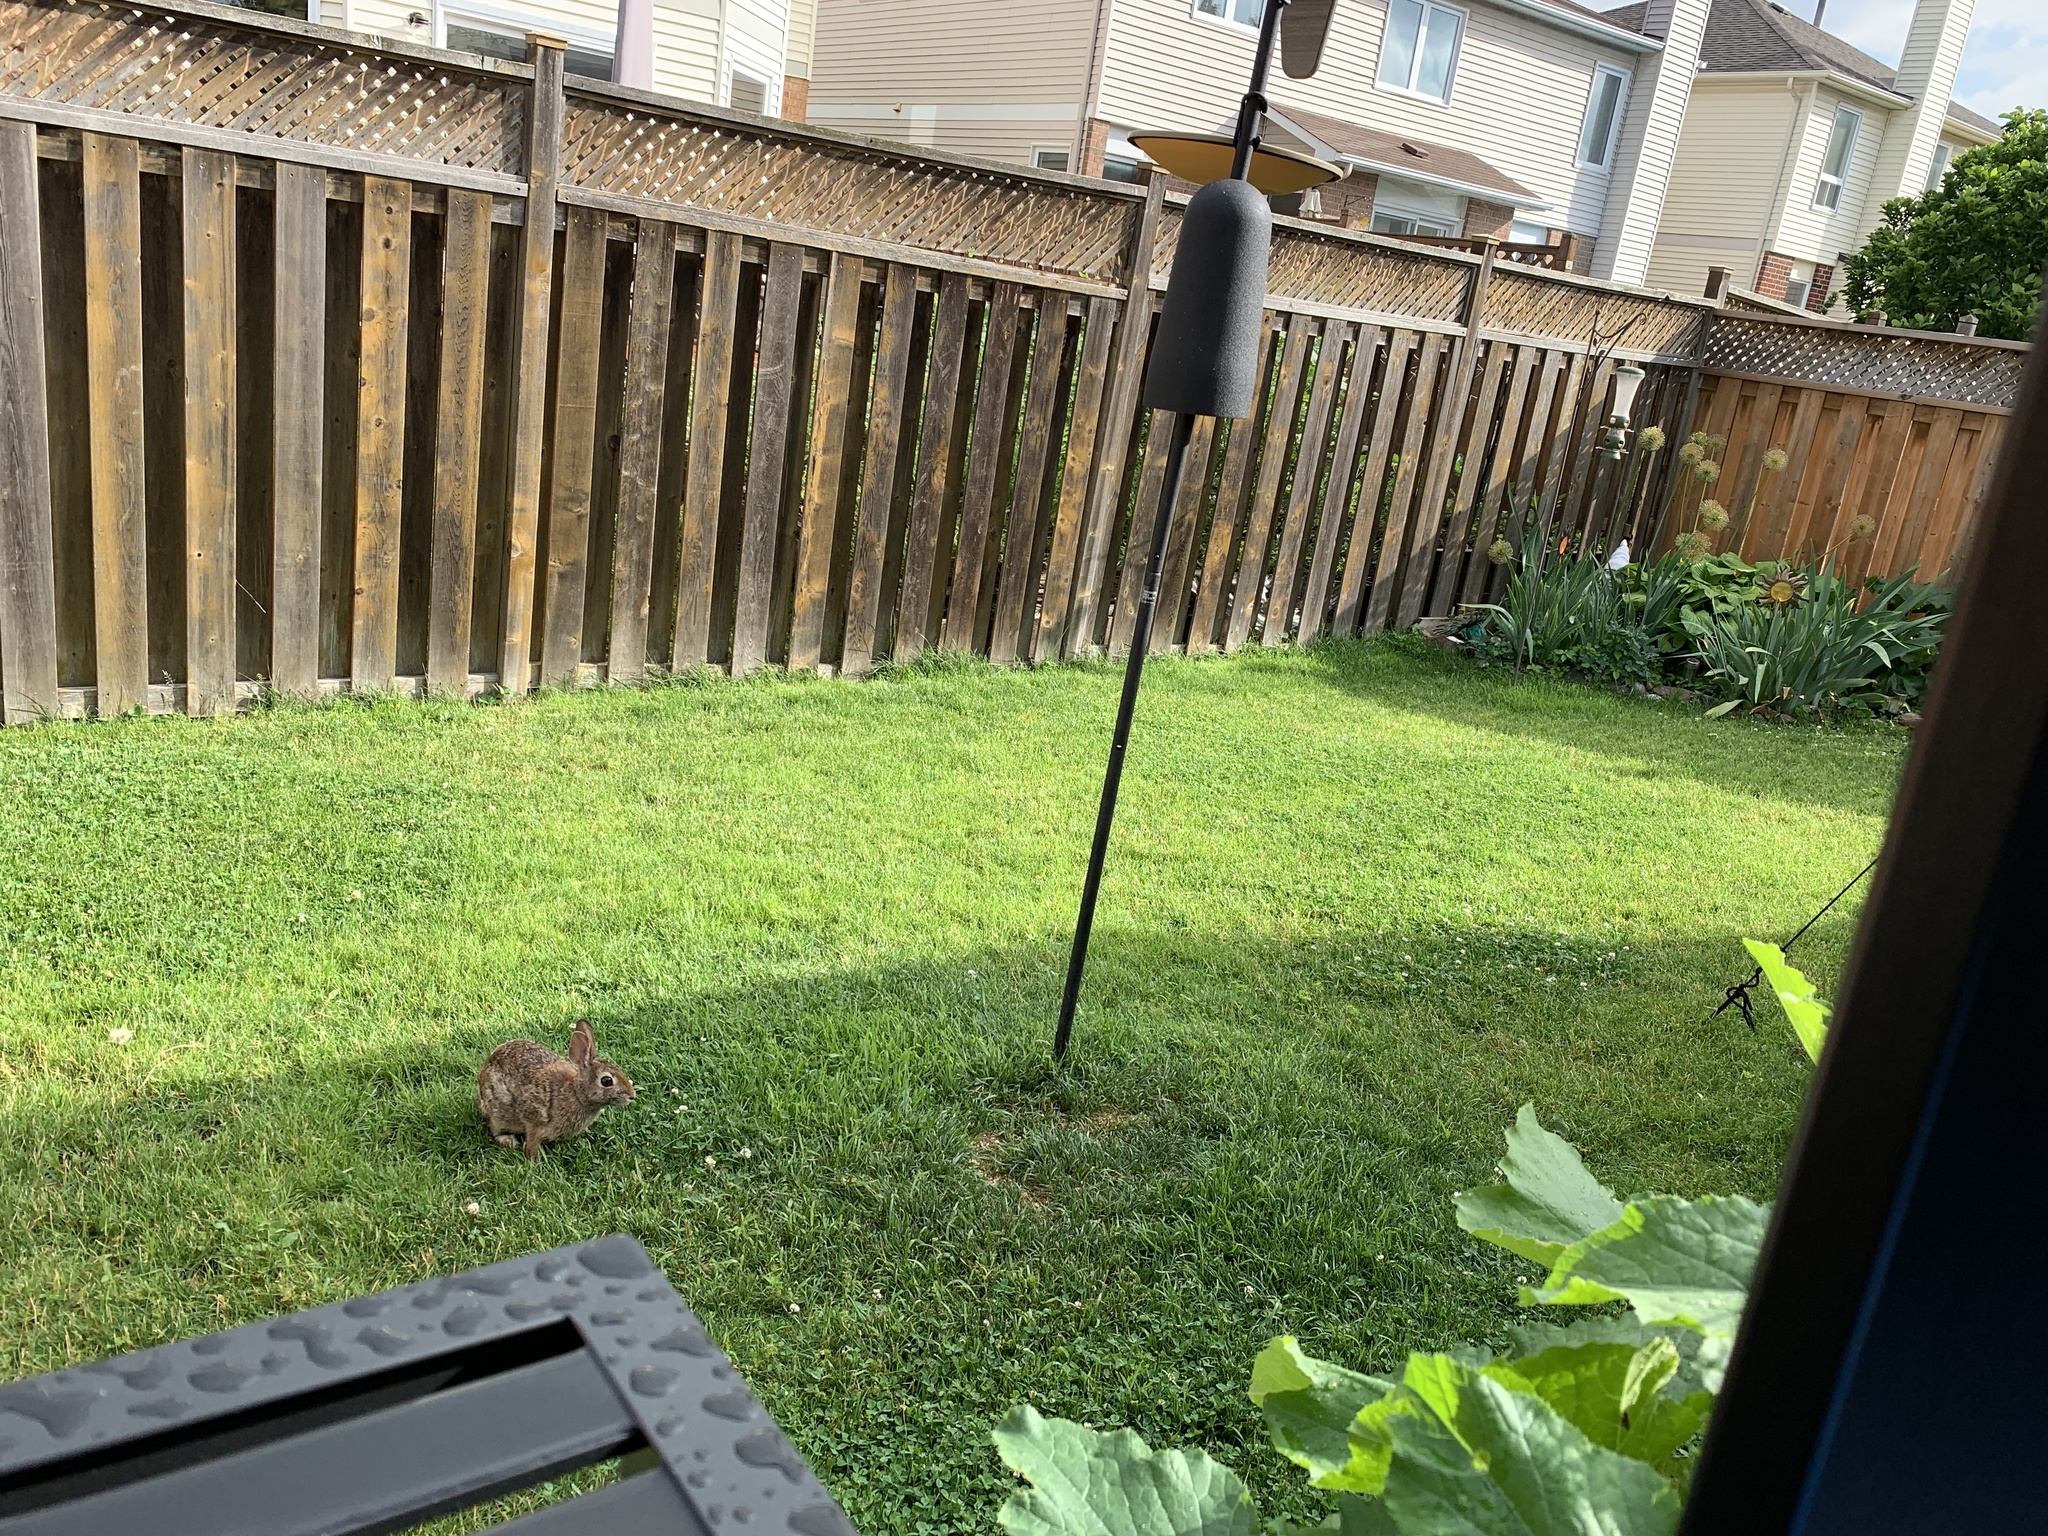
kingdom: Animalia
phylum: Chordata
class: Mammalia
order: Lagomorpha
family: Leporidae
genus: Sylvilagus
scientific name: Sylvilagus floridanus
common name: Eastern cottontail
